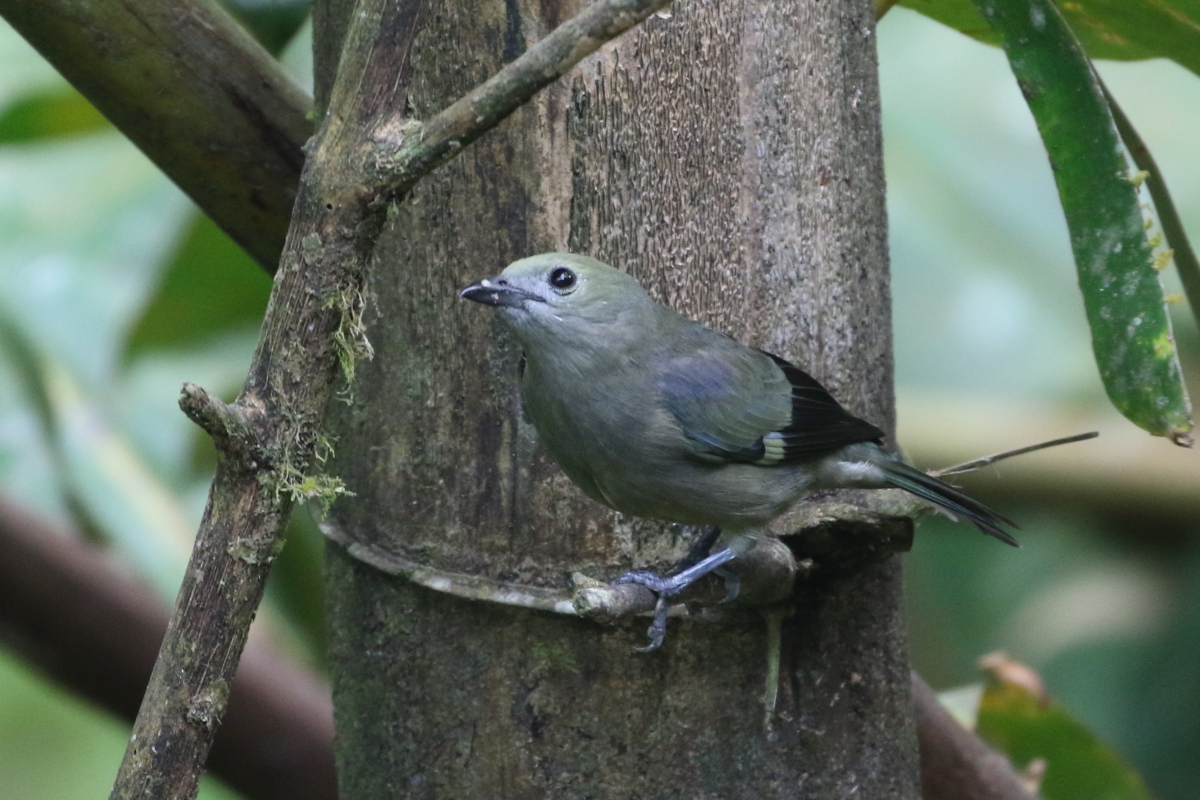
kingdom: Animalia
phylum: Chordata
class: Aves
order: Passeriformes
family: Thraupidae
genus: Thraupis
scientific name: Thraupis palmarum
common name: Palm tanager
